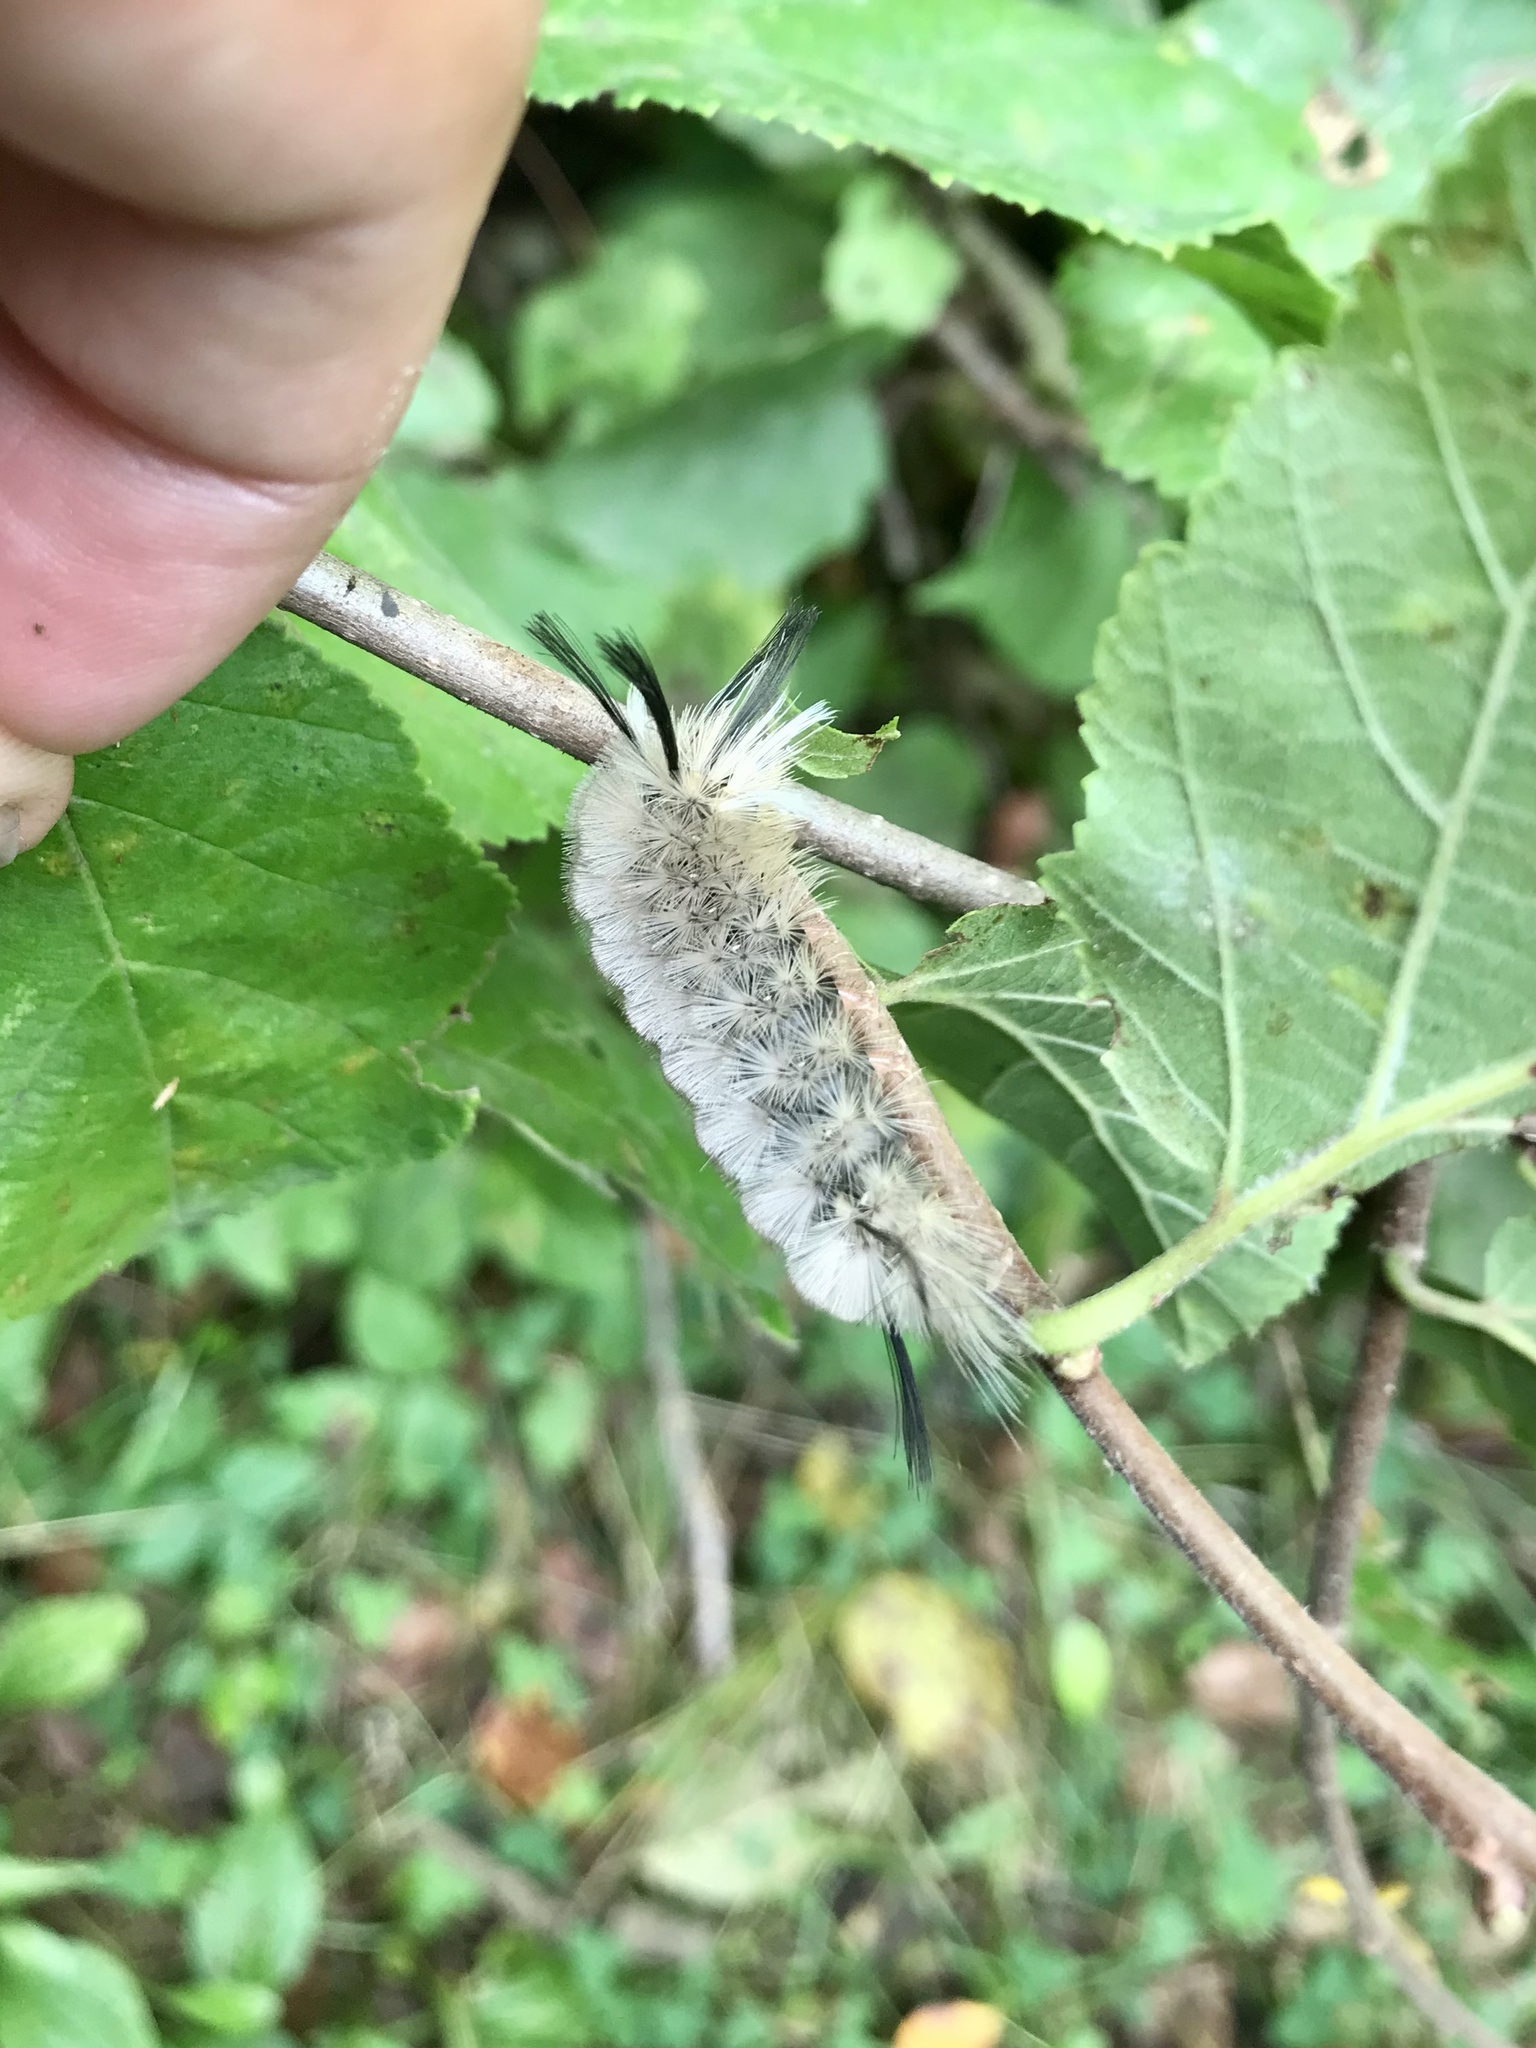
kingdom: Animalia
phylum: Arthropoda
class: Insecta
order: Lepidoptera
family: Erebidae
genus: Halysidota
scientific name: Halysidota tessellaris
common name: Banded tussock moth
